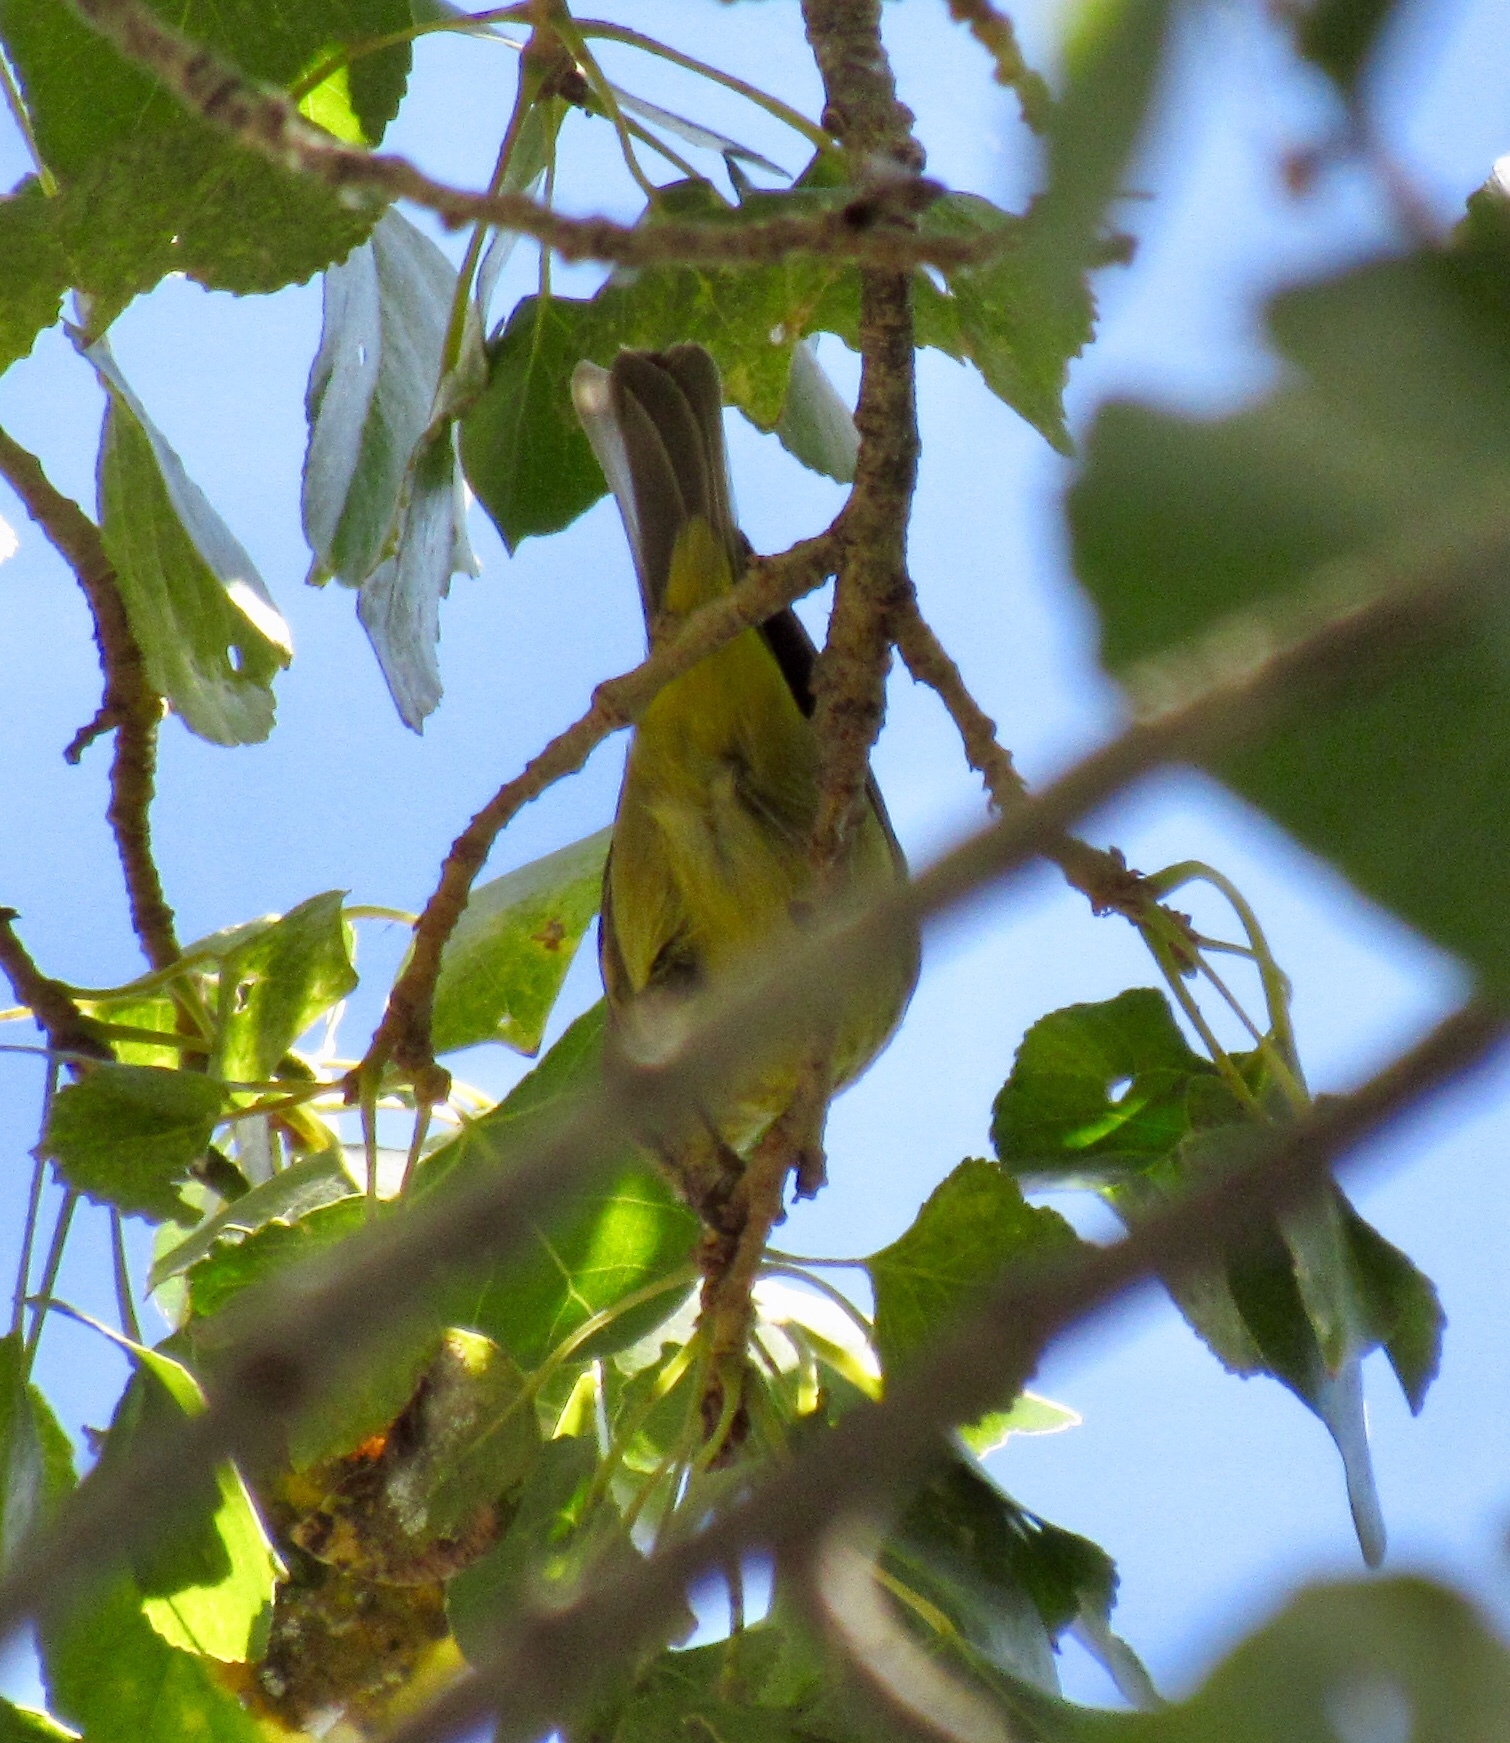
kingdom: Animalia
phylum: Chordata
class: Aves
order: Passeriformes
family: Parulidae
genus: Leiothlypis
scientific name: Leiothlypis celata
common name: Orange-crowned warbler
